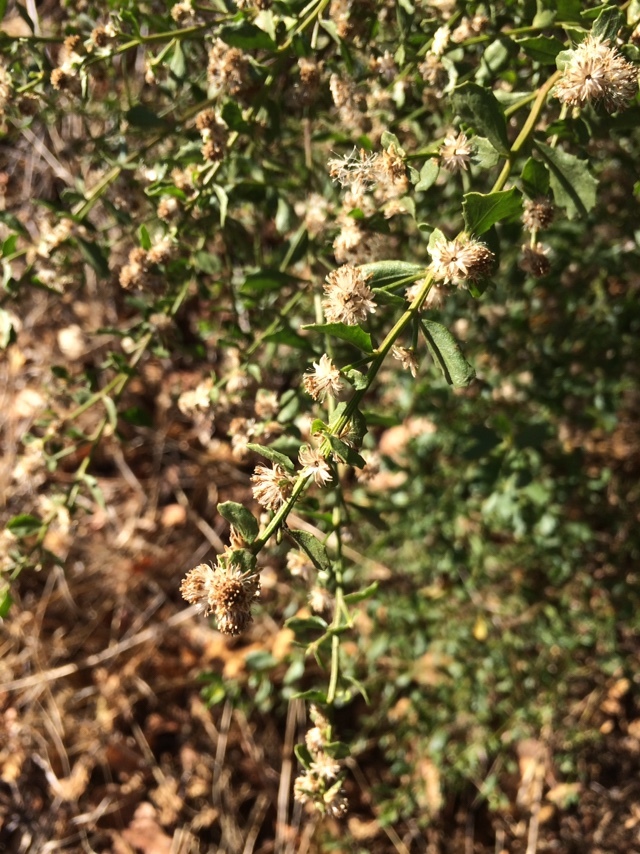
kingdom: Plantae
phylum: Tracheophyta
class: Magnoliopsida
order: Asterales
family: Asteraceae
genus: Baccharis
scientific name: Baccharis pilularis
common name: Coyotebrush
